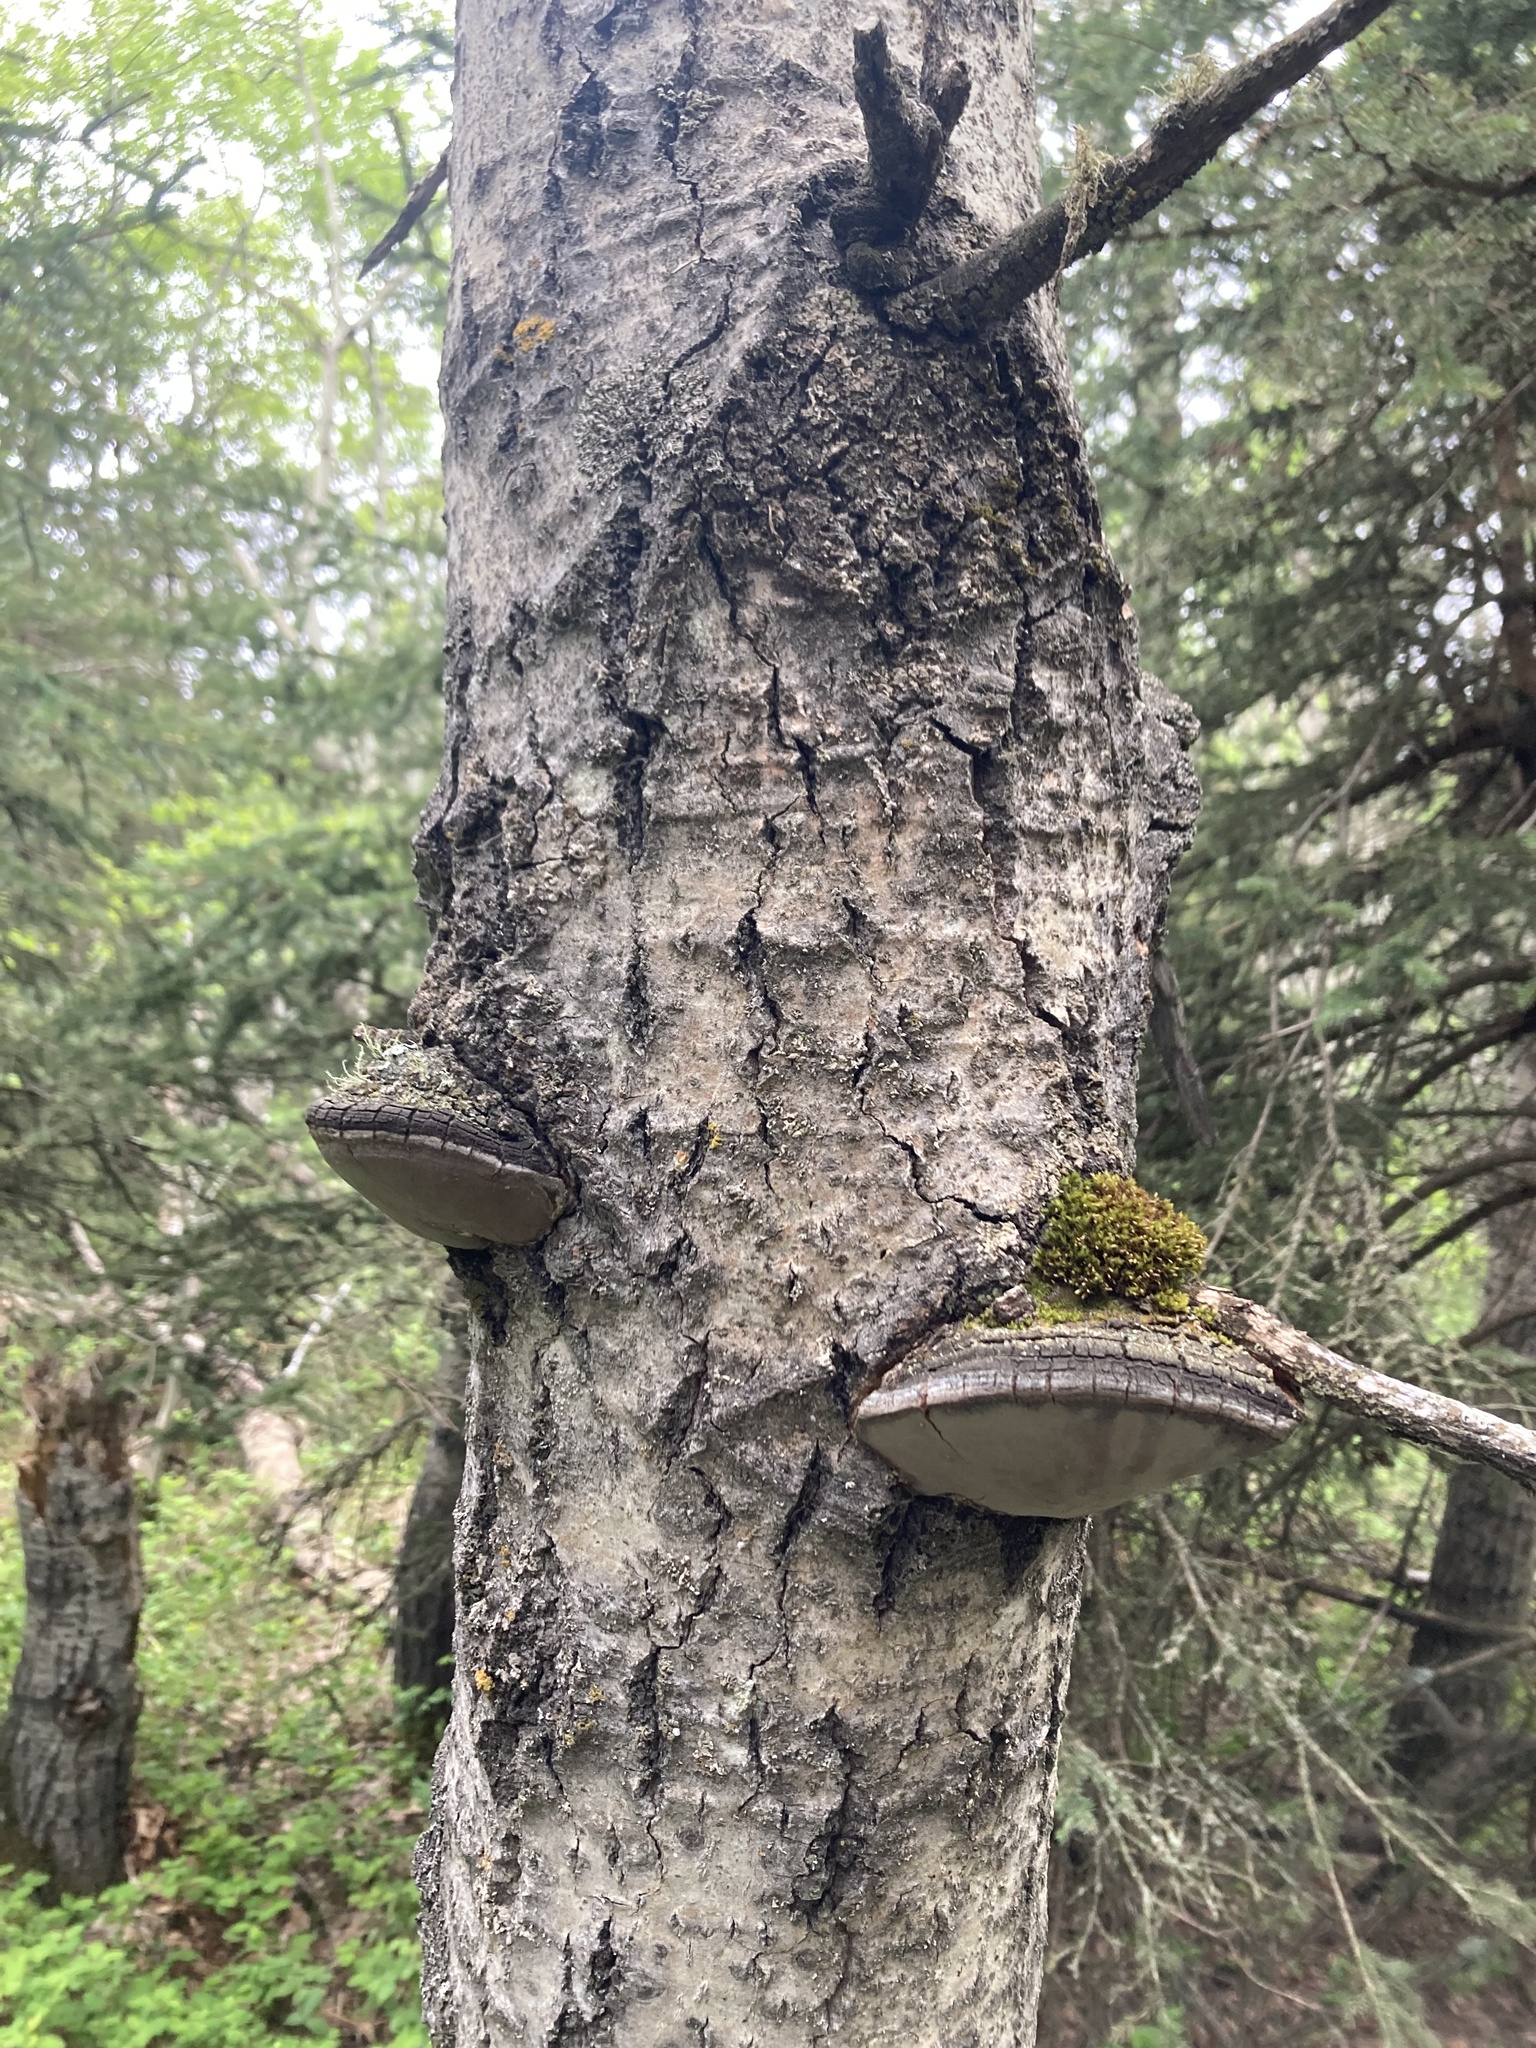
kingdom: Fungi
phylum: Basidiomycota
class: Agaricomycetes
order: Hymenochaetales
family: Hymenochaetaceae
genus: Phellinus
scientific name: Phellinus tremulae
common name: Aspen bracket
